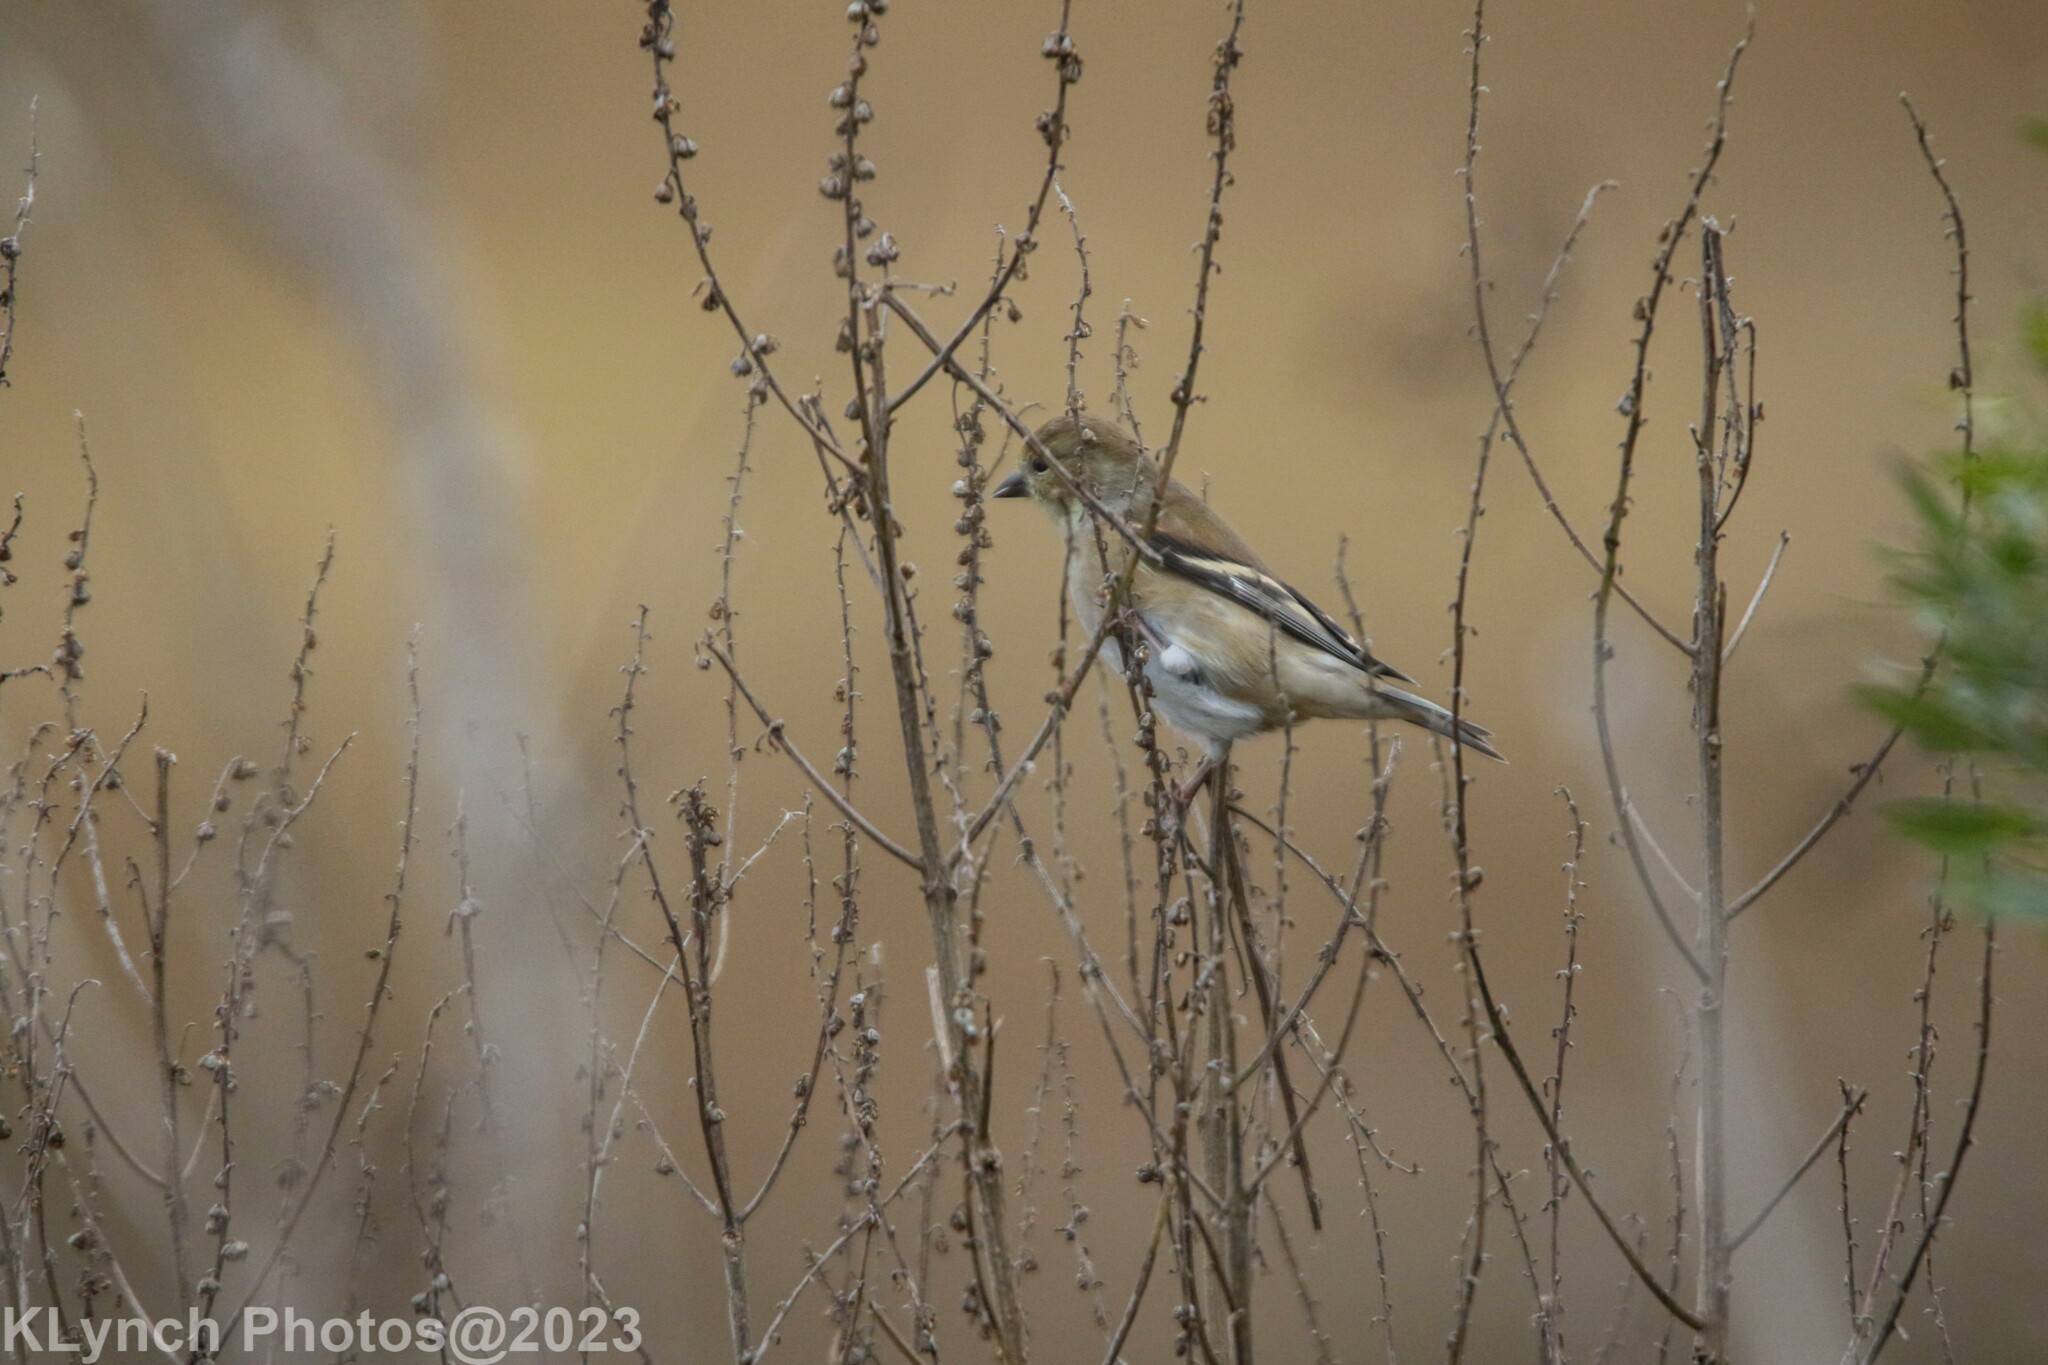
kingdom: Animalia
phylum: Chordata
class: Aves
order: Passeriformes
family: Fringillidae
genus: Spinus
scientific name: Spinus tristis
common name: American goldfinch
